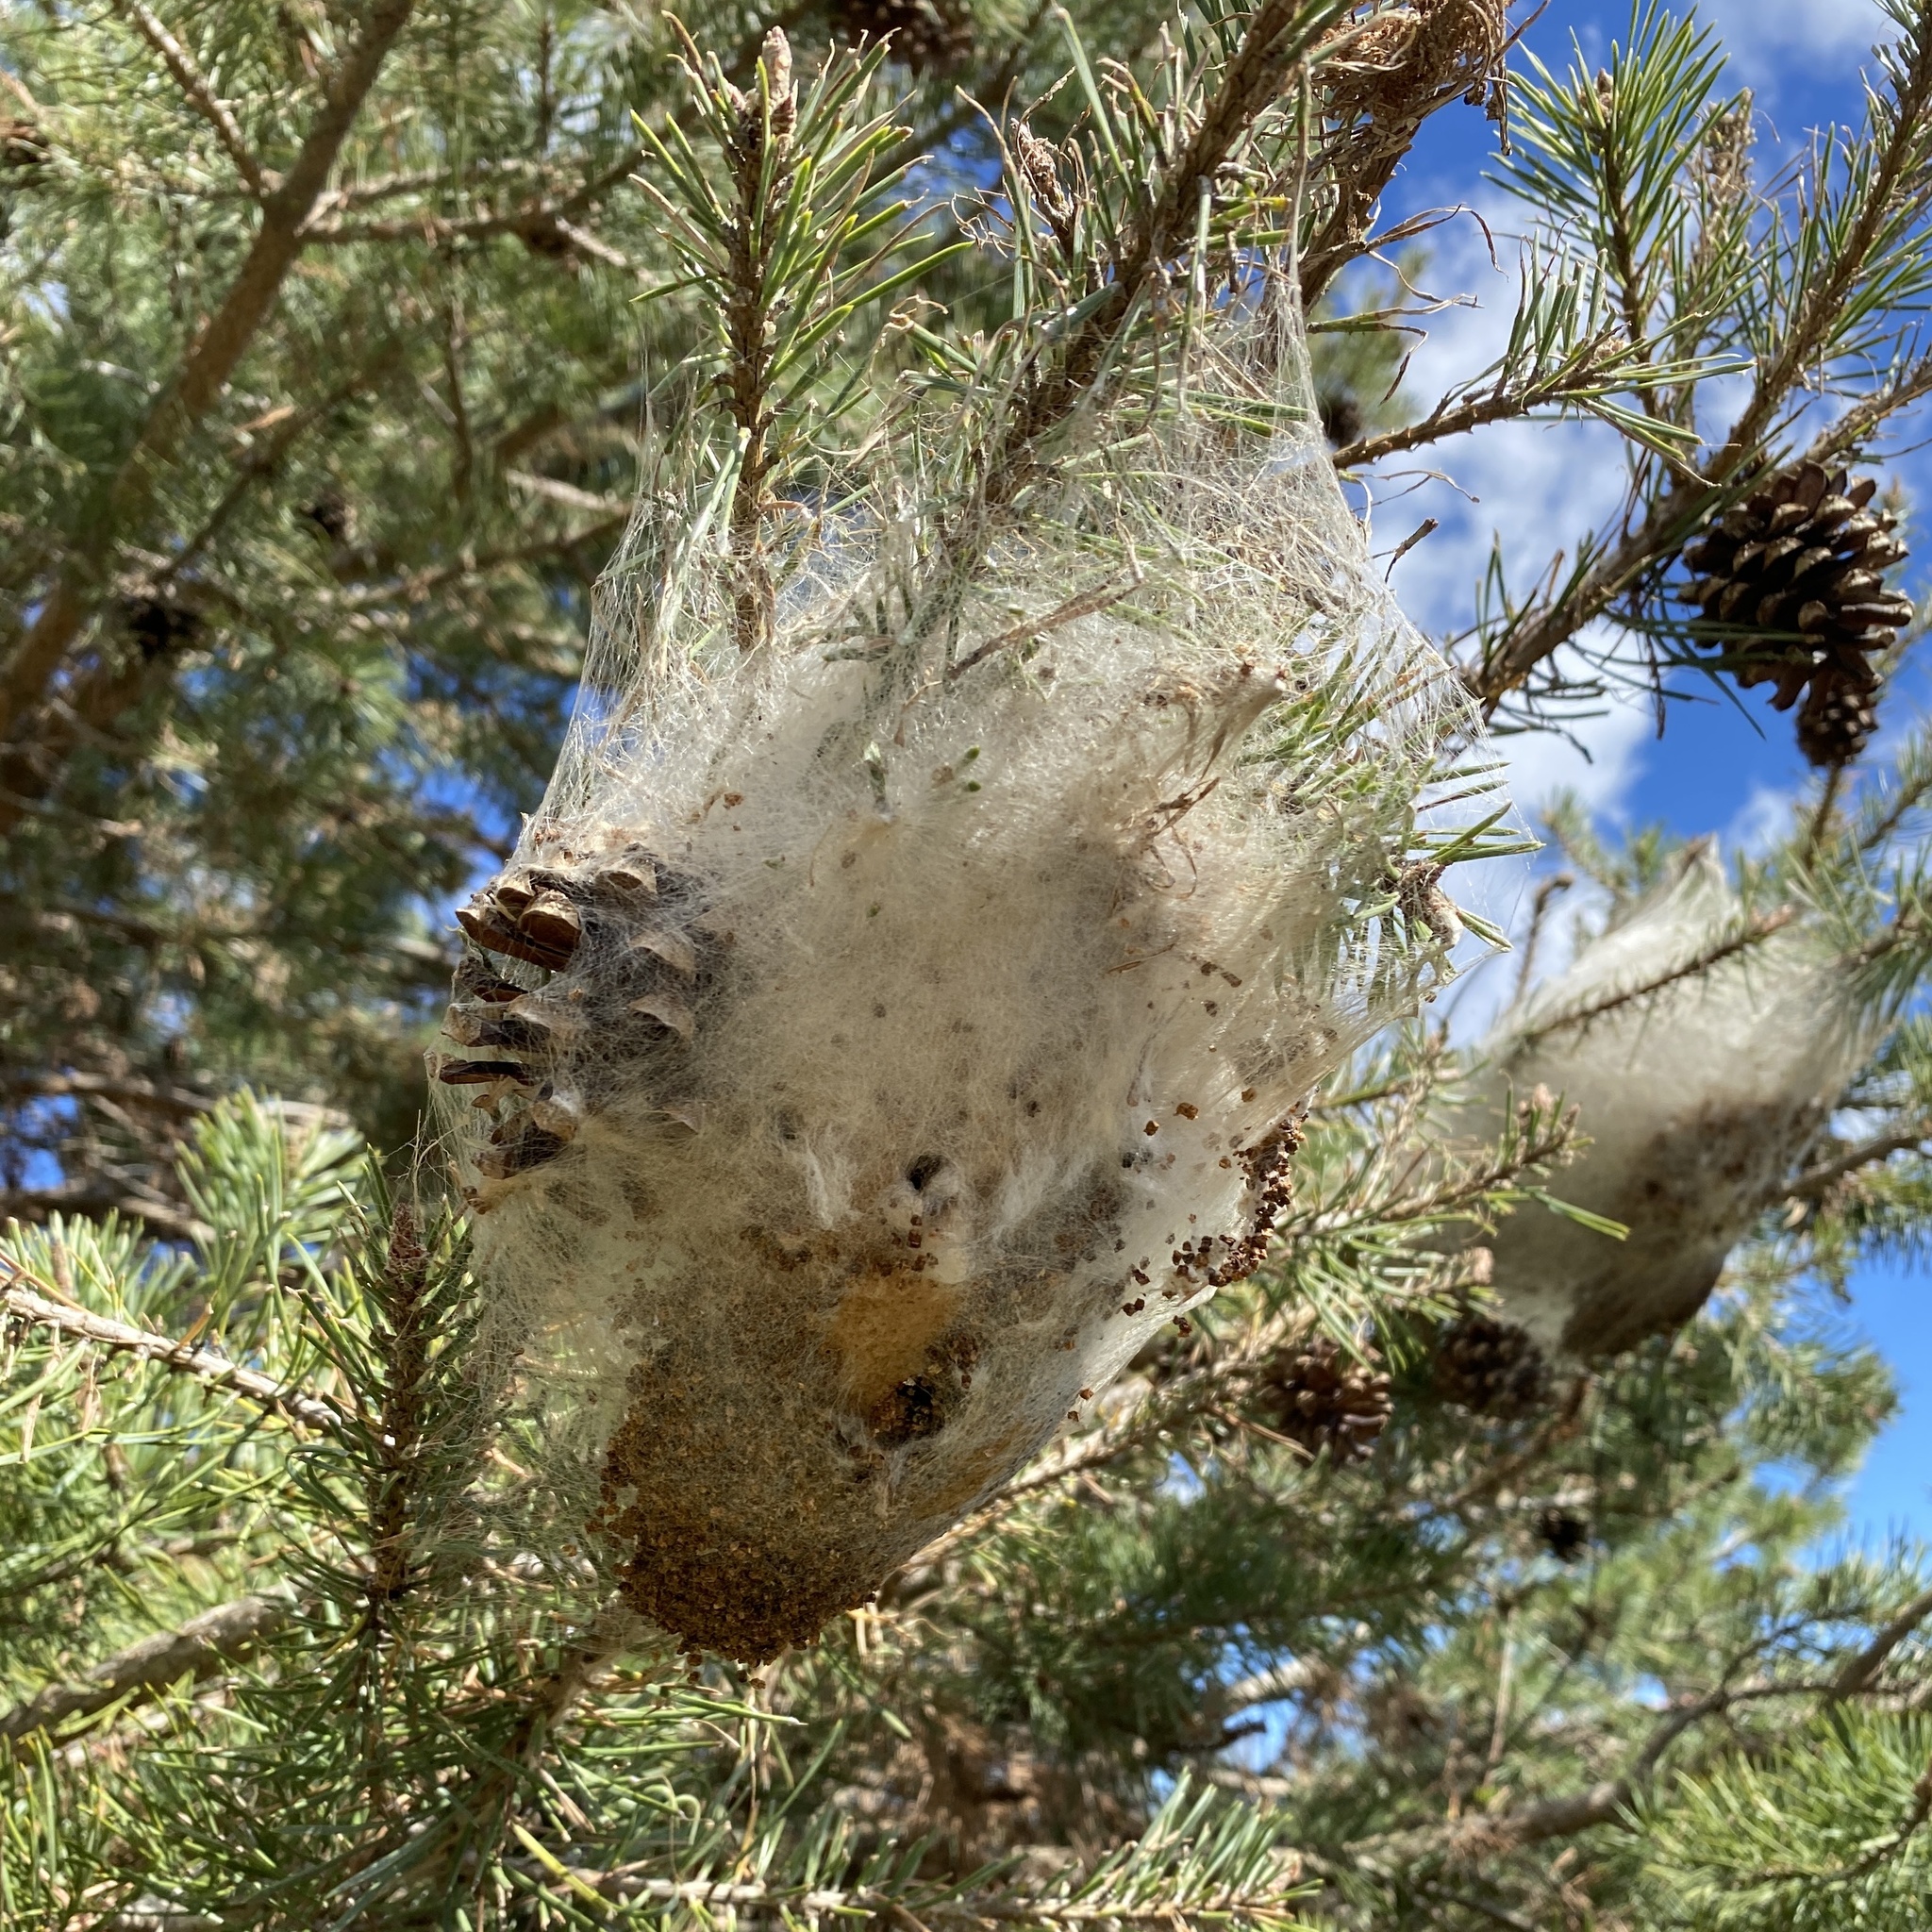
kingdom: Animalia
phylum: Arthropoda
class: Insecta
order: Lepidoptera
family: Notodontidae
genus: Thaumetopoea
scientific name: Thaumetopoea pityocampa
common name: Pine processionary
